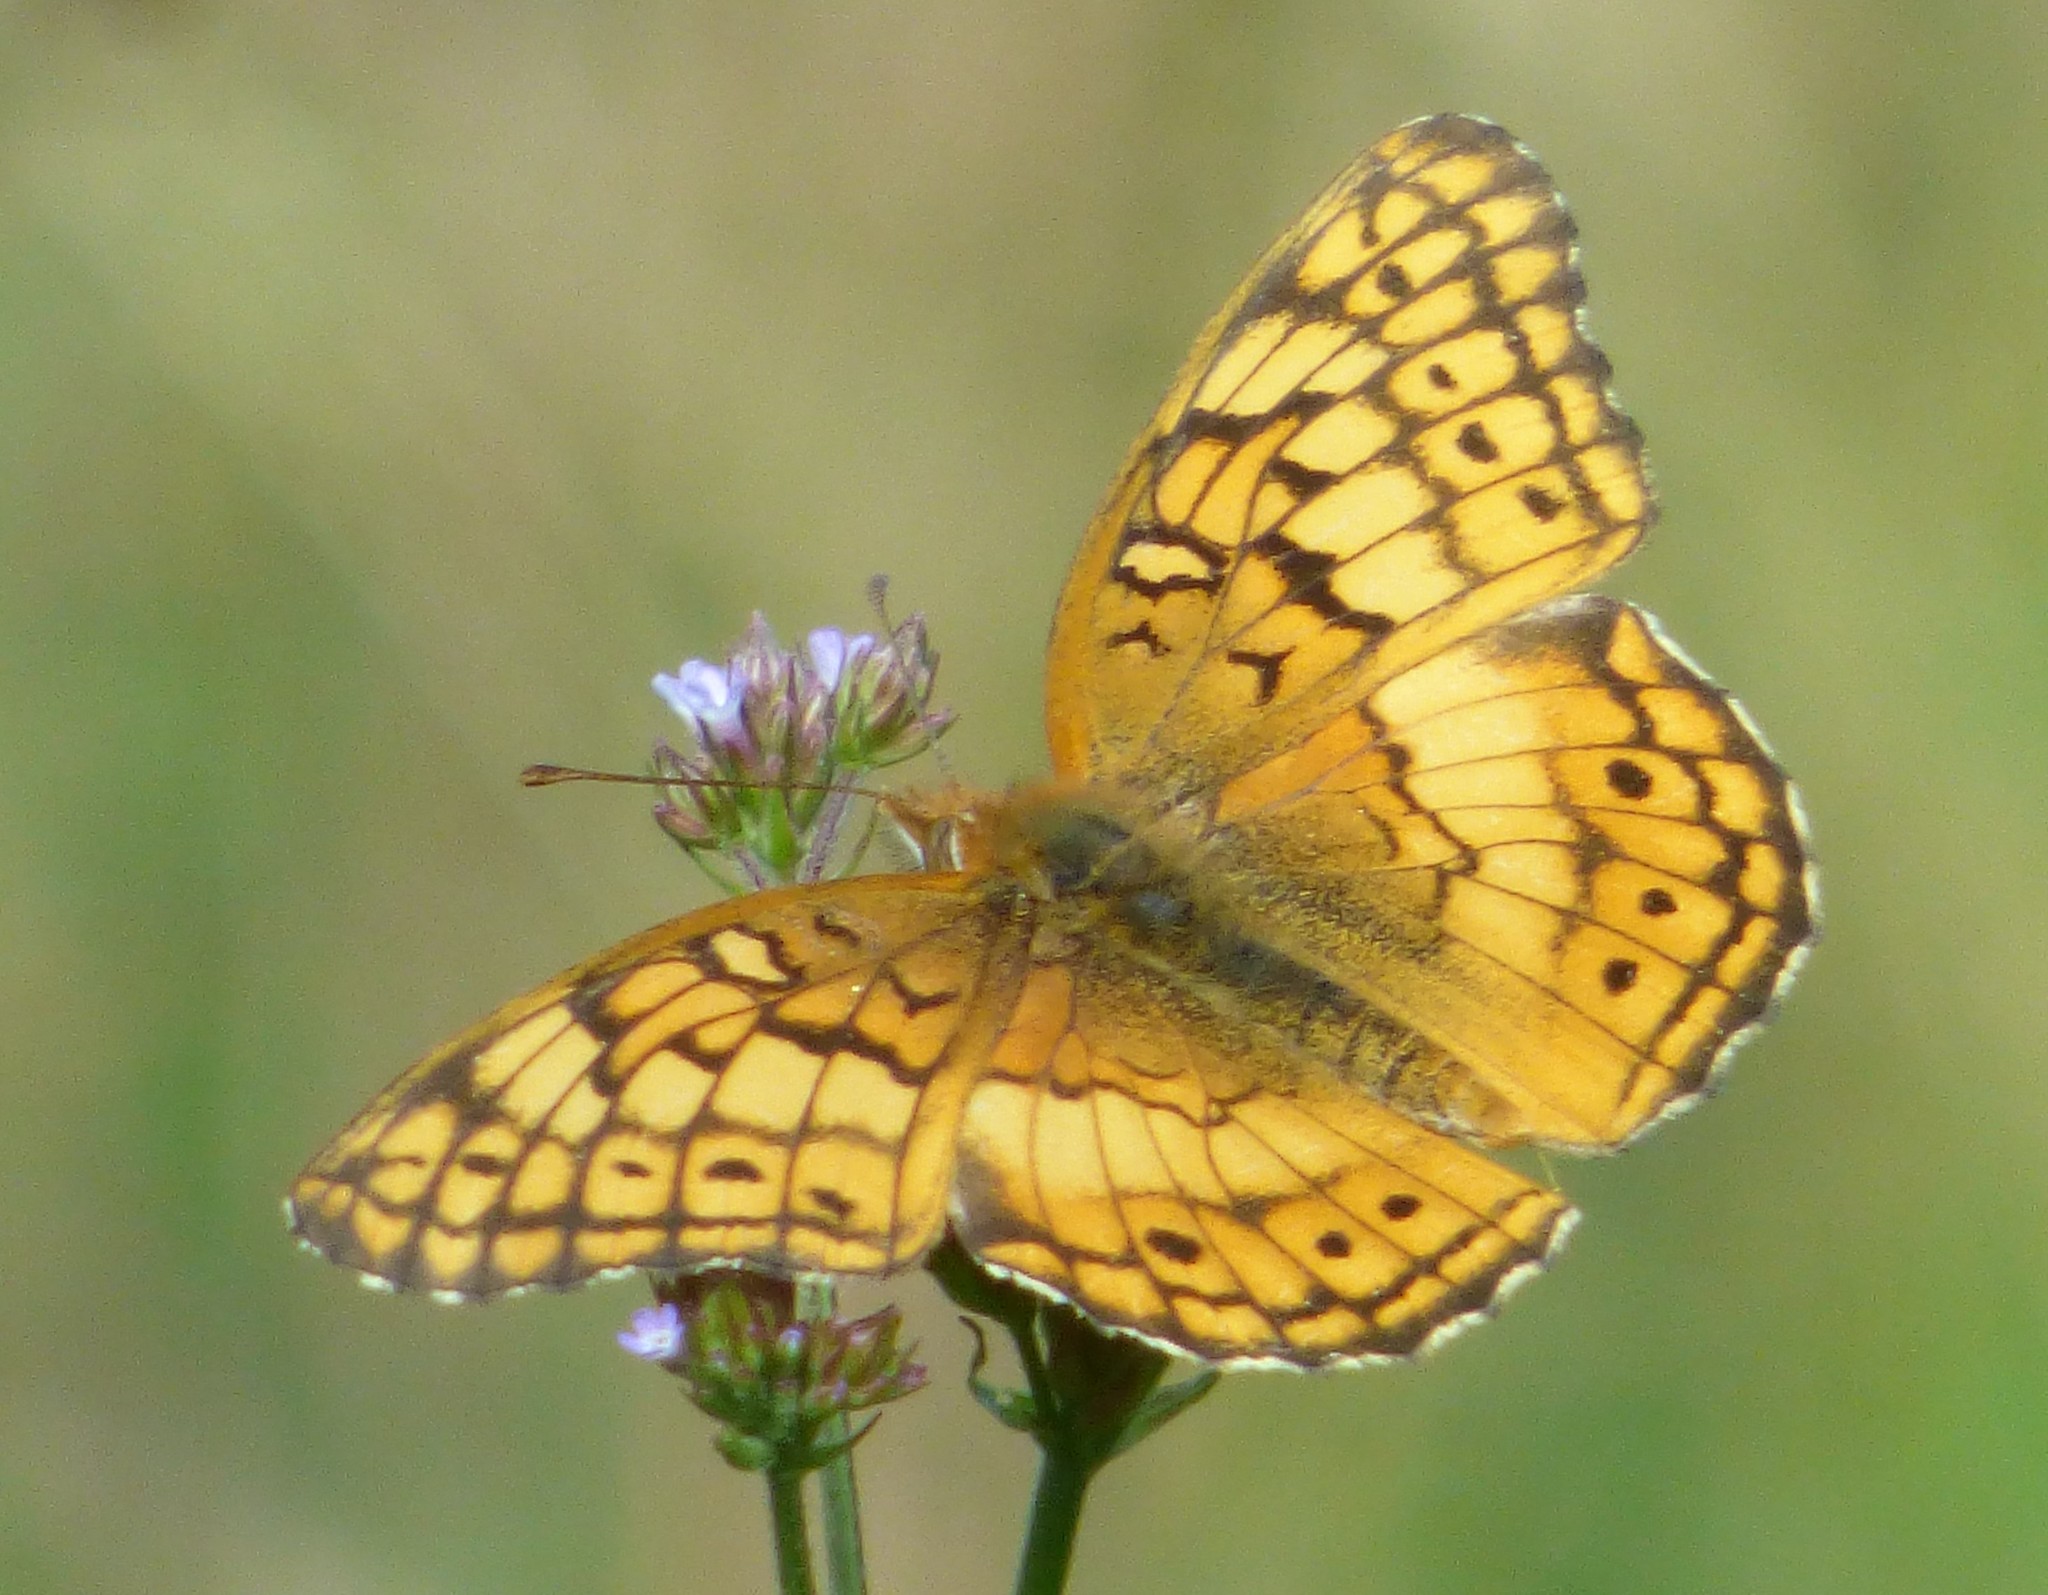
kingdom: Animalia
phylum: Arthropoda
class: Insecta
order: Lepidoptera
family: Nymphalidae
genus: Euptoieta
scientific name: Euptoieta claudia
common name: Variegated fritillary
